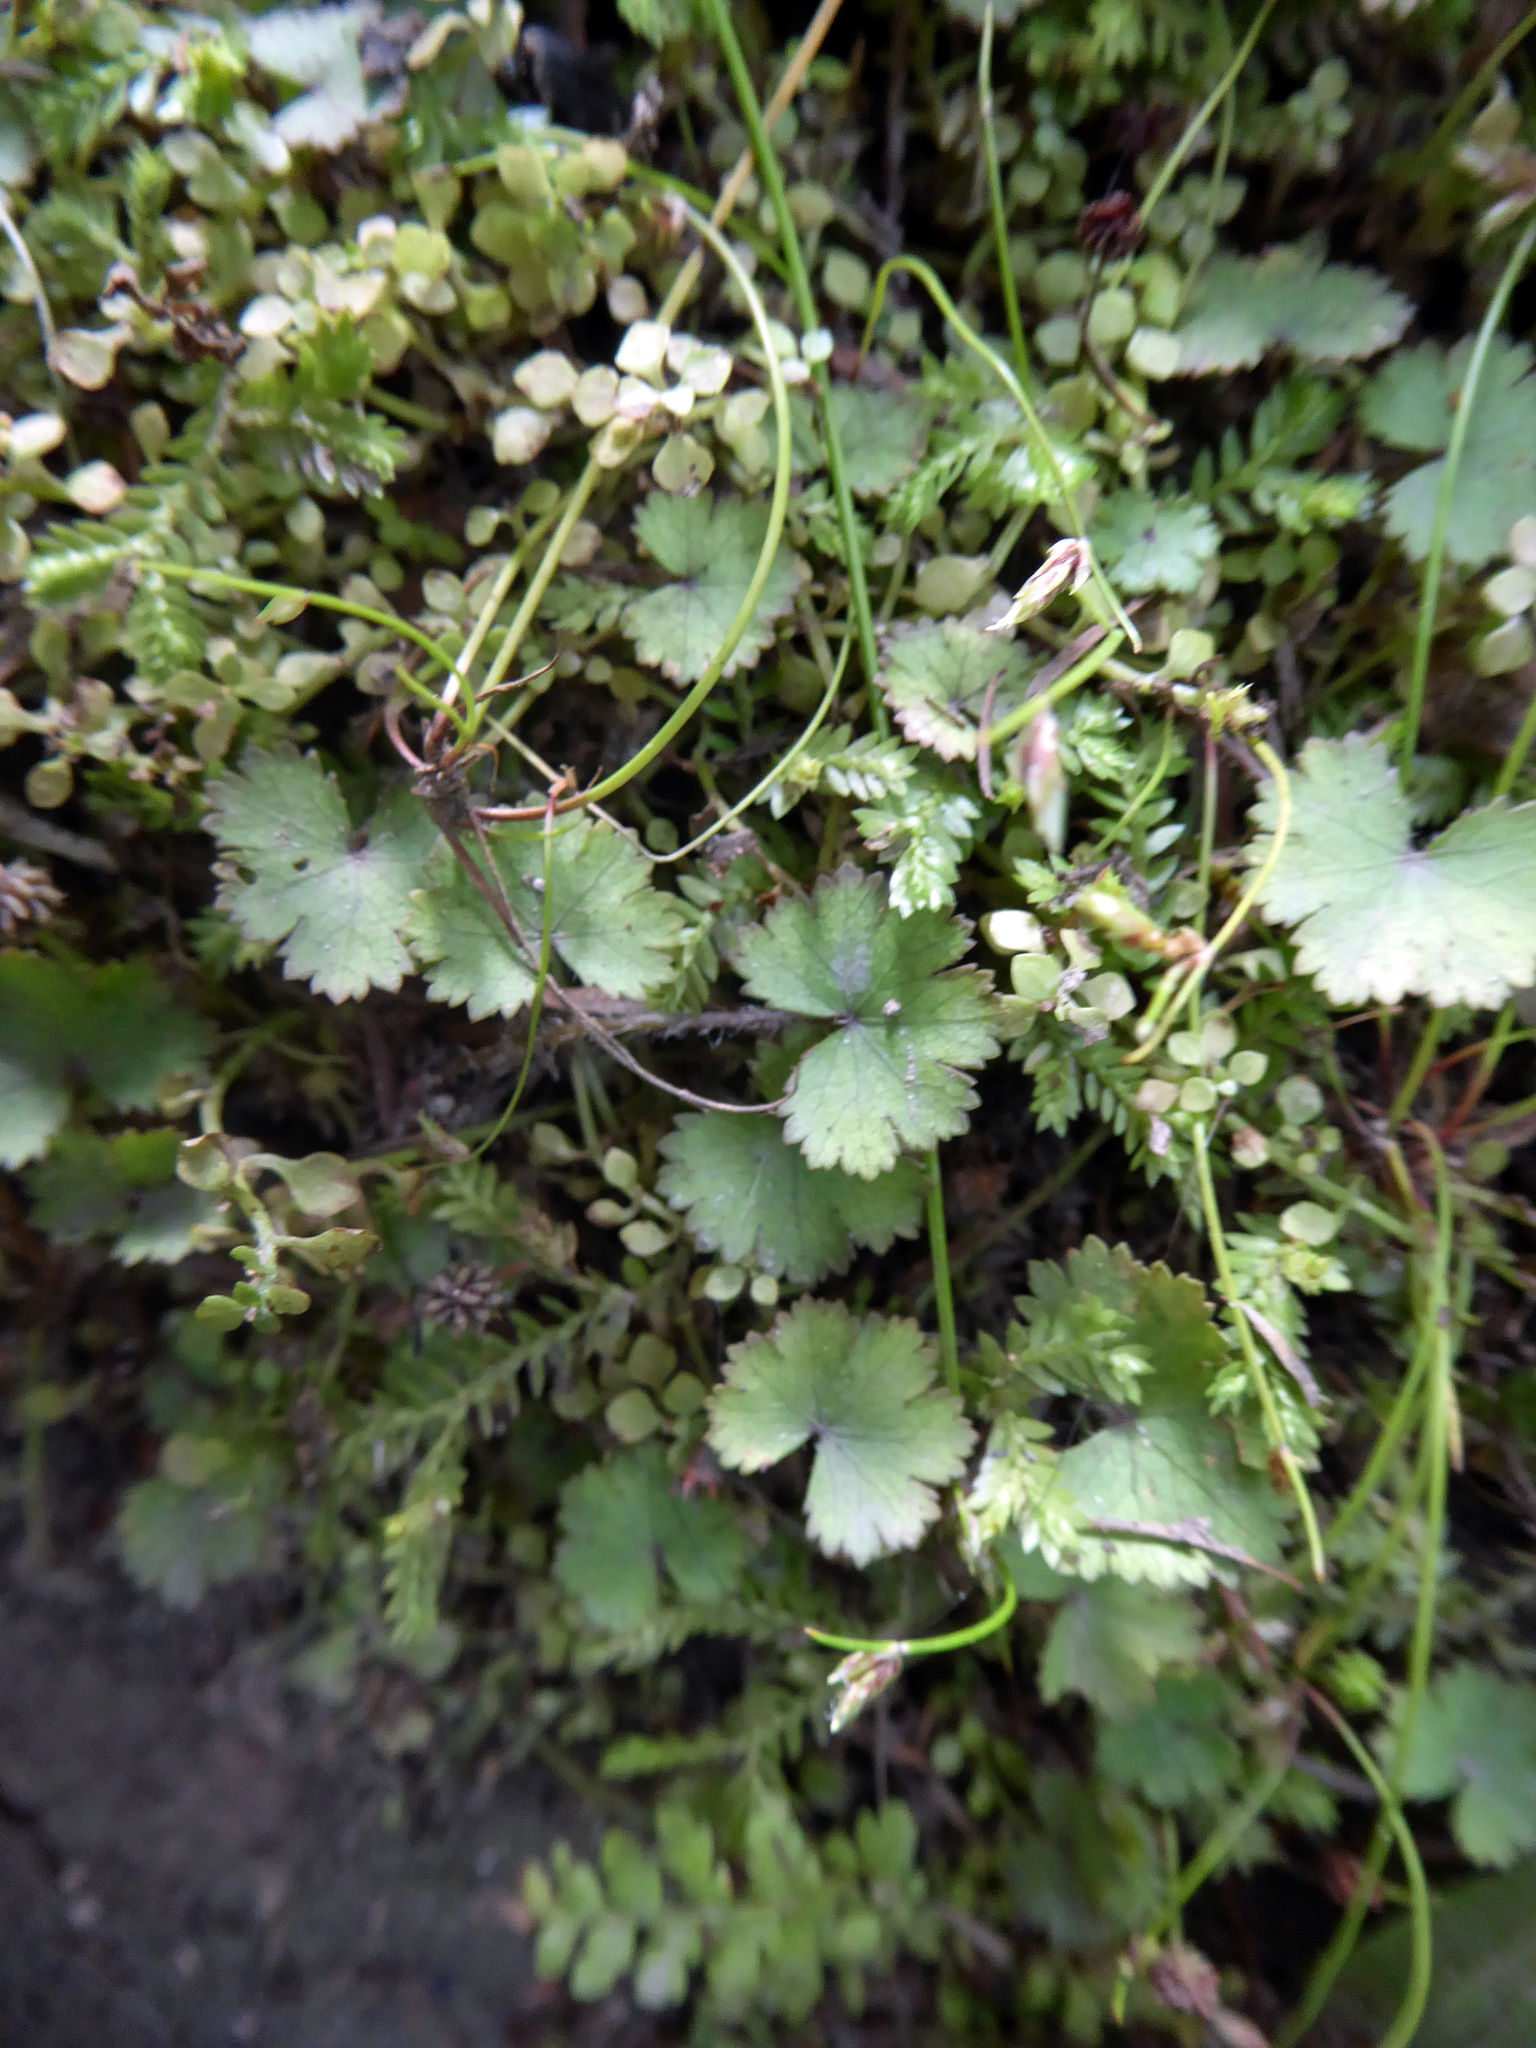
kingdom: Plantae
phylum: Tracheophyta
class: Magnoliopsida
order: Apiales
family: Araliaceae
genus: Hydrocotyle
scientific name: Hydrocotyle moschata
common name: Hairy pennywort
